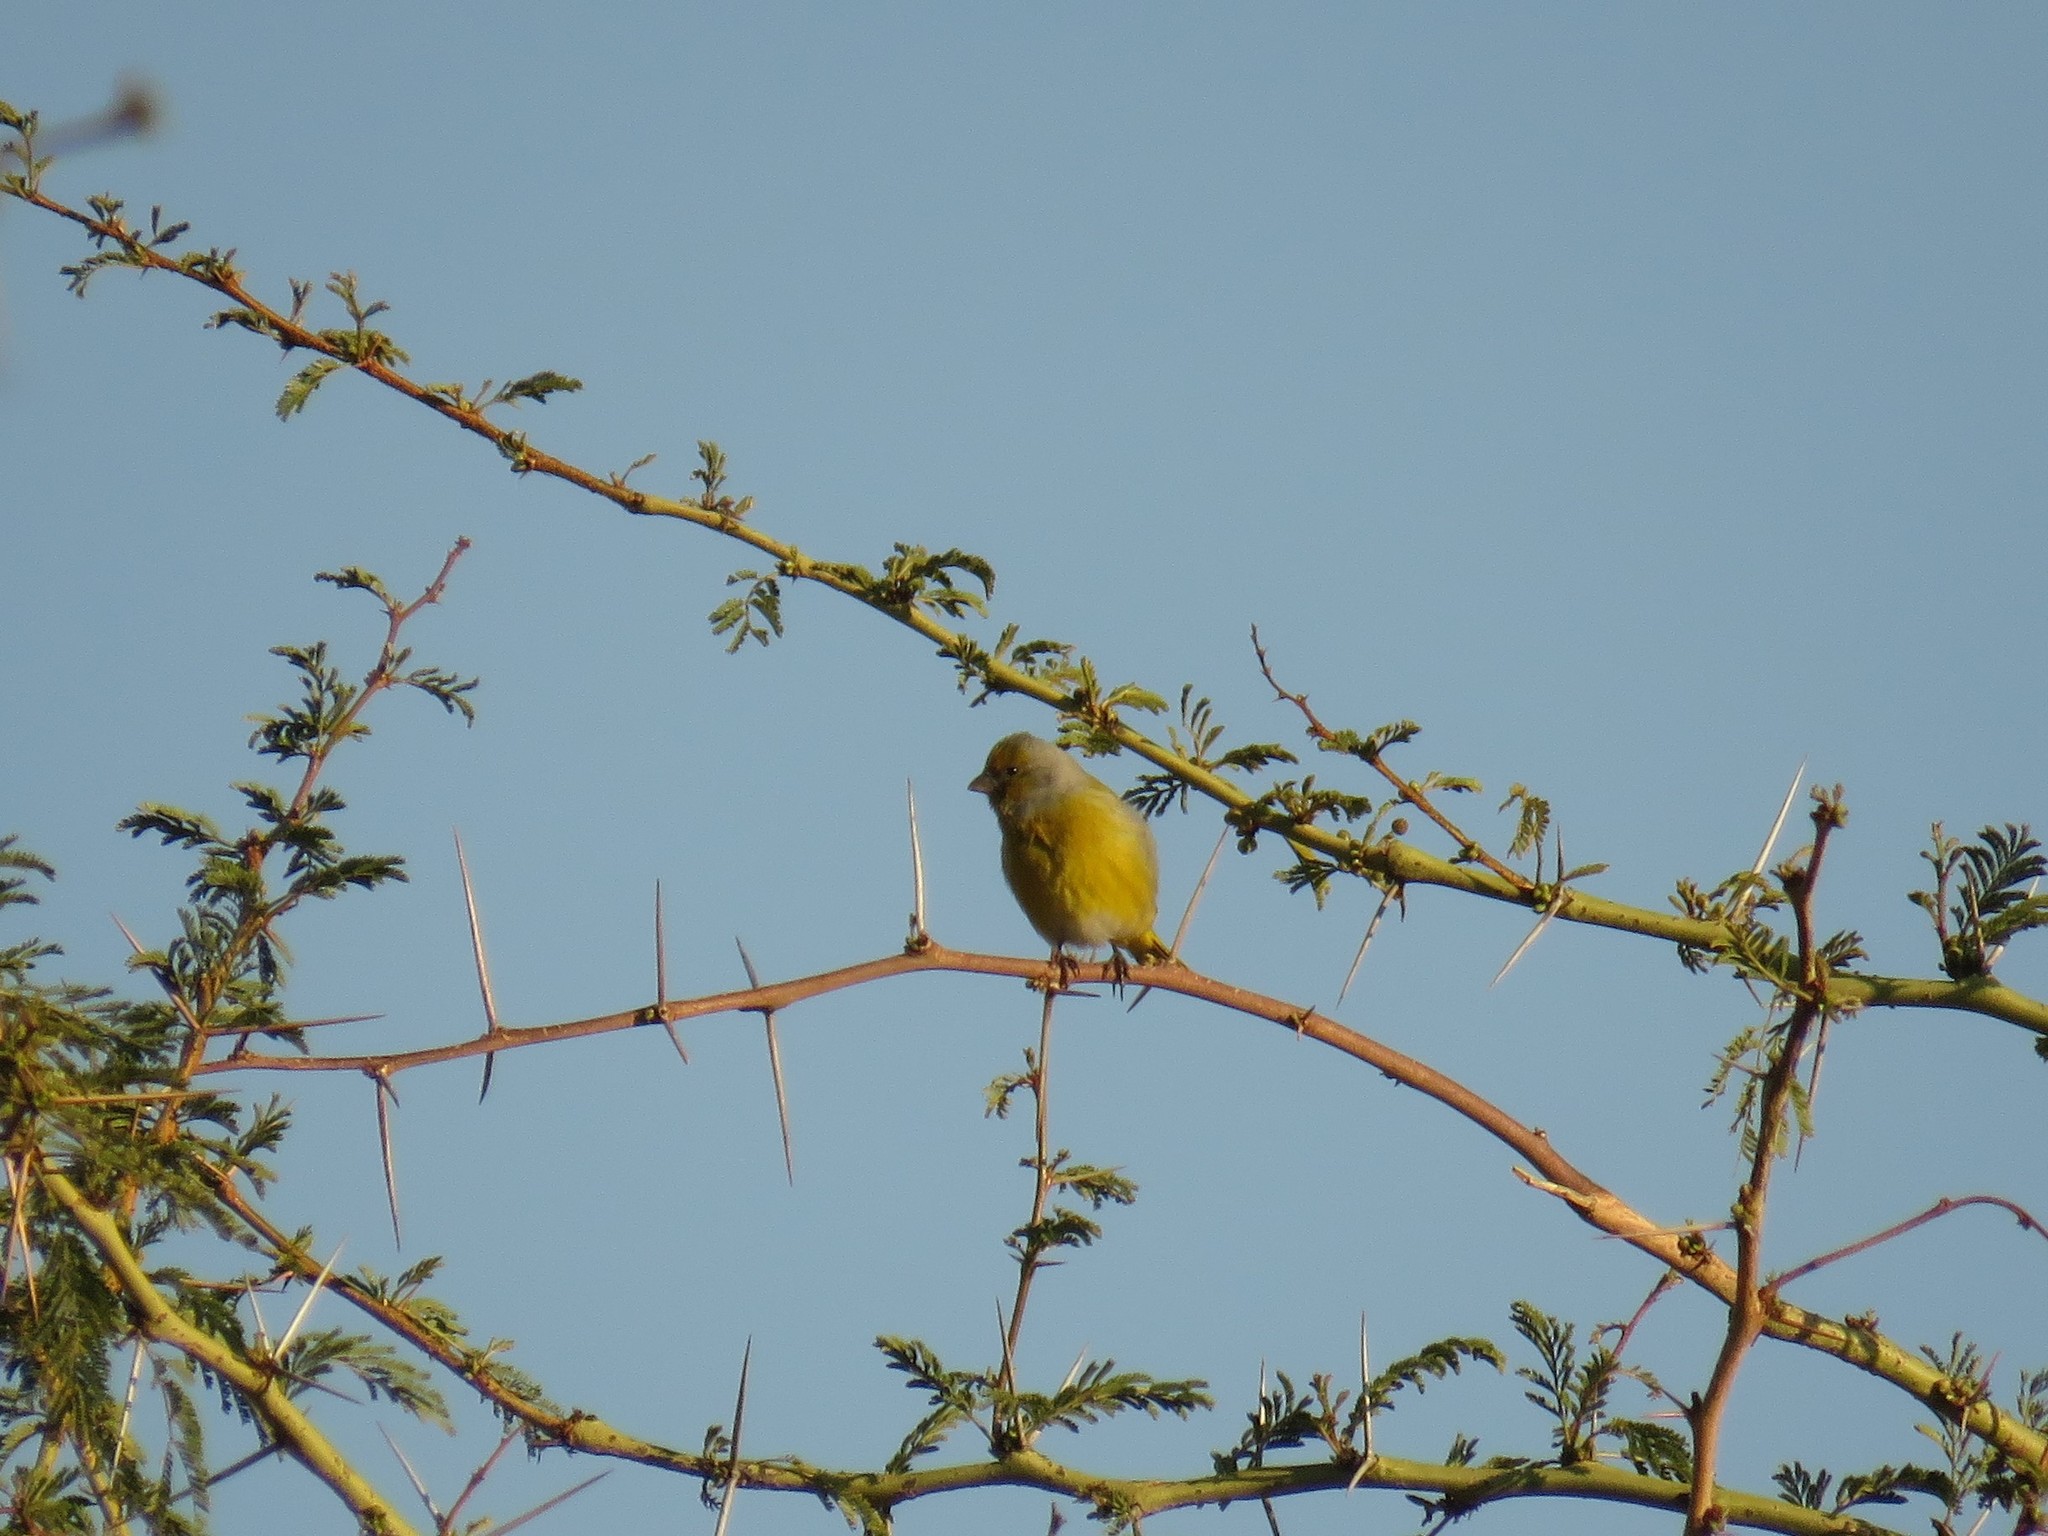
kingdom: Animalia
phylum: Chordata
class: Aves
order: Passeriformes
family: Fringillidae
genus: Serinus
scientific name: Serinus canicollis
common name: Cape canary
